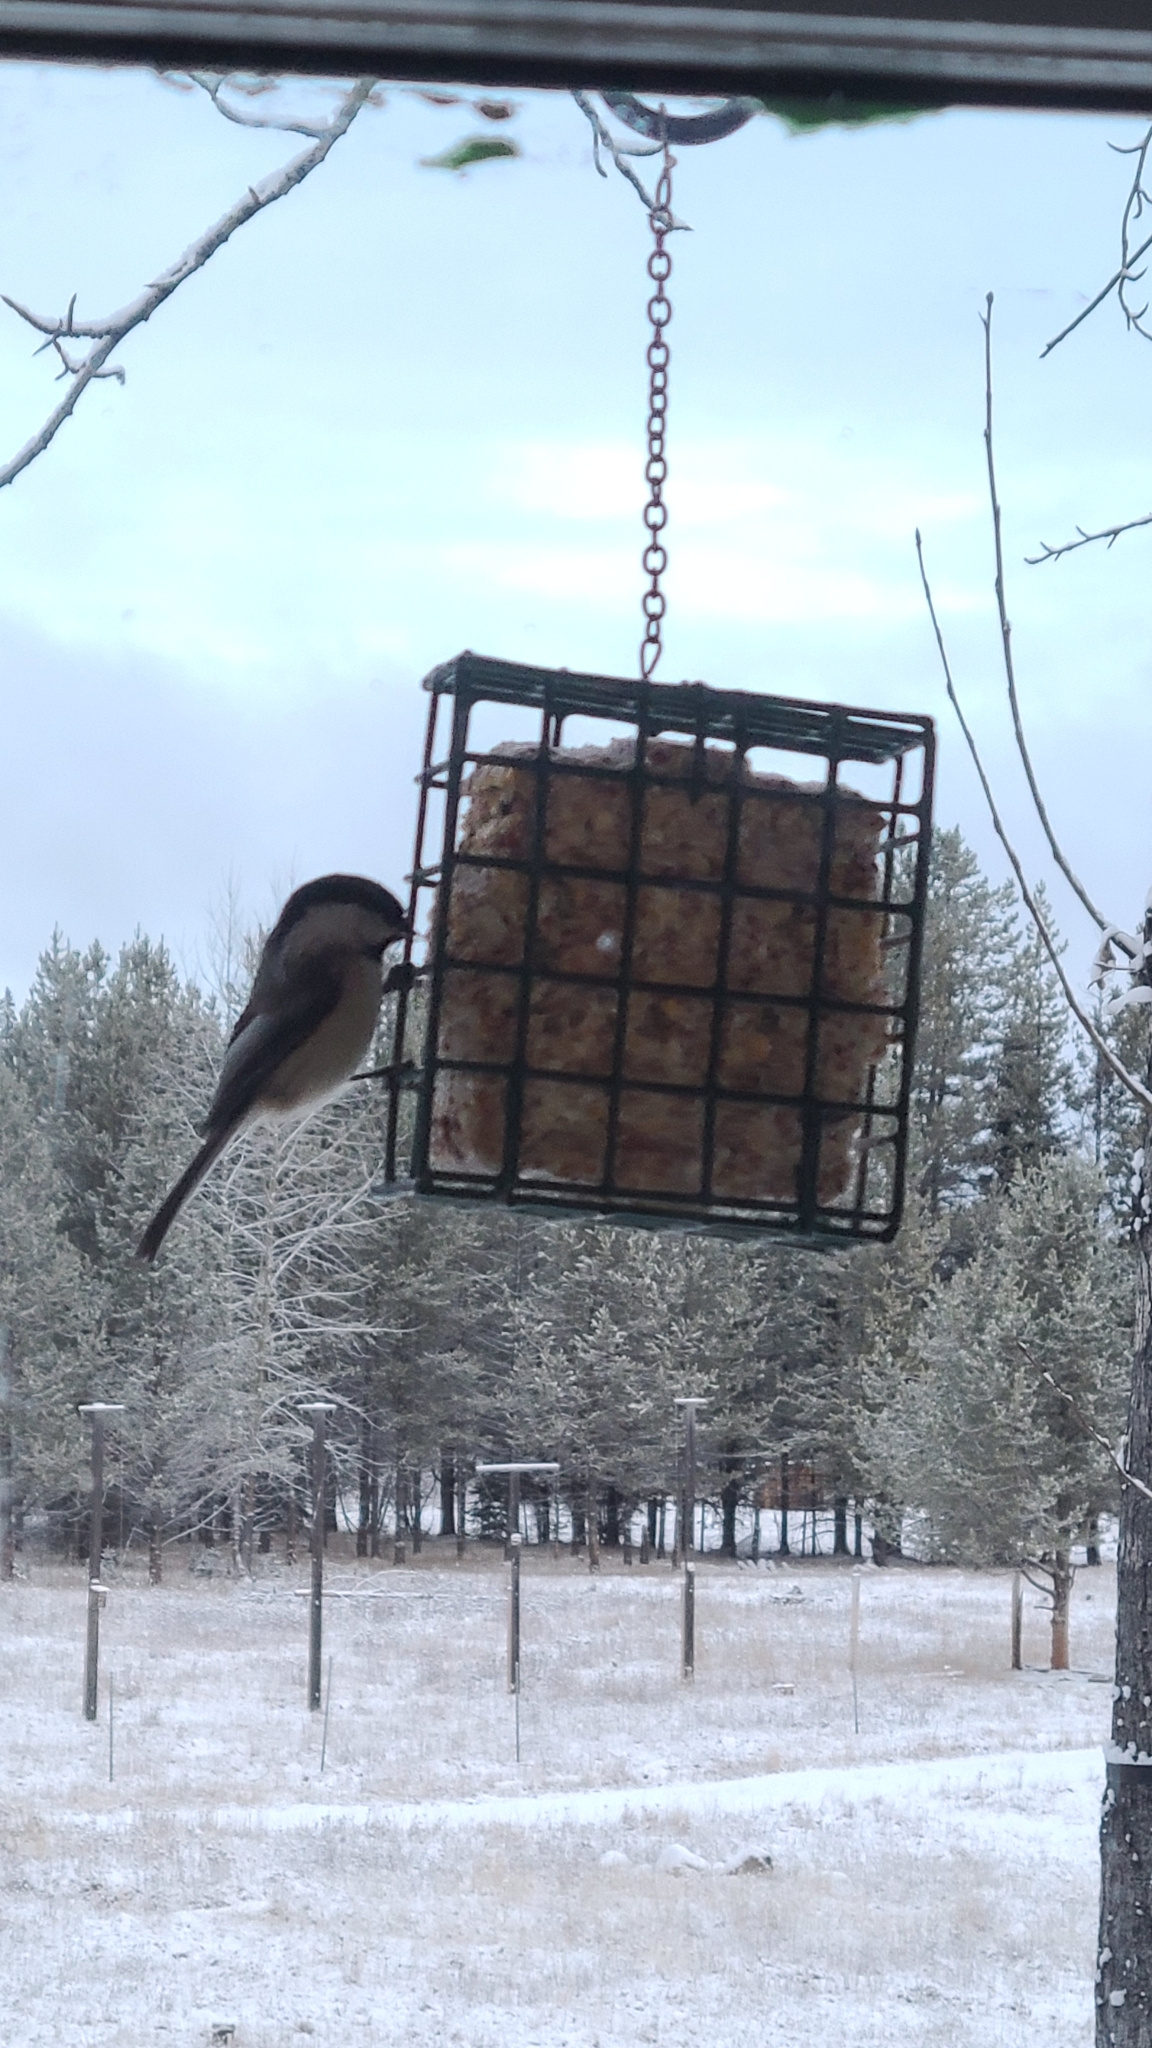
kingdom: Animalia
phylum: Chordata
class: Aves
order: Passeriformes
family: Paridae
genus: Poecile
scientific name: Poecile atricapillus
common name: Black-capped chickadee
